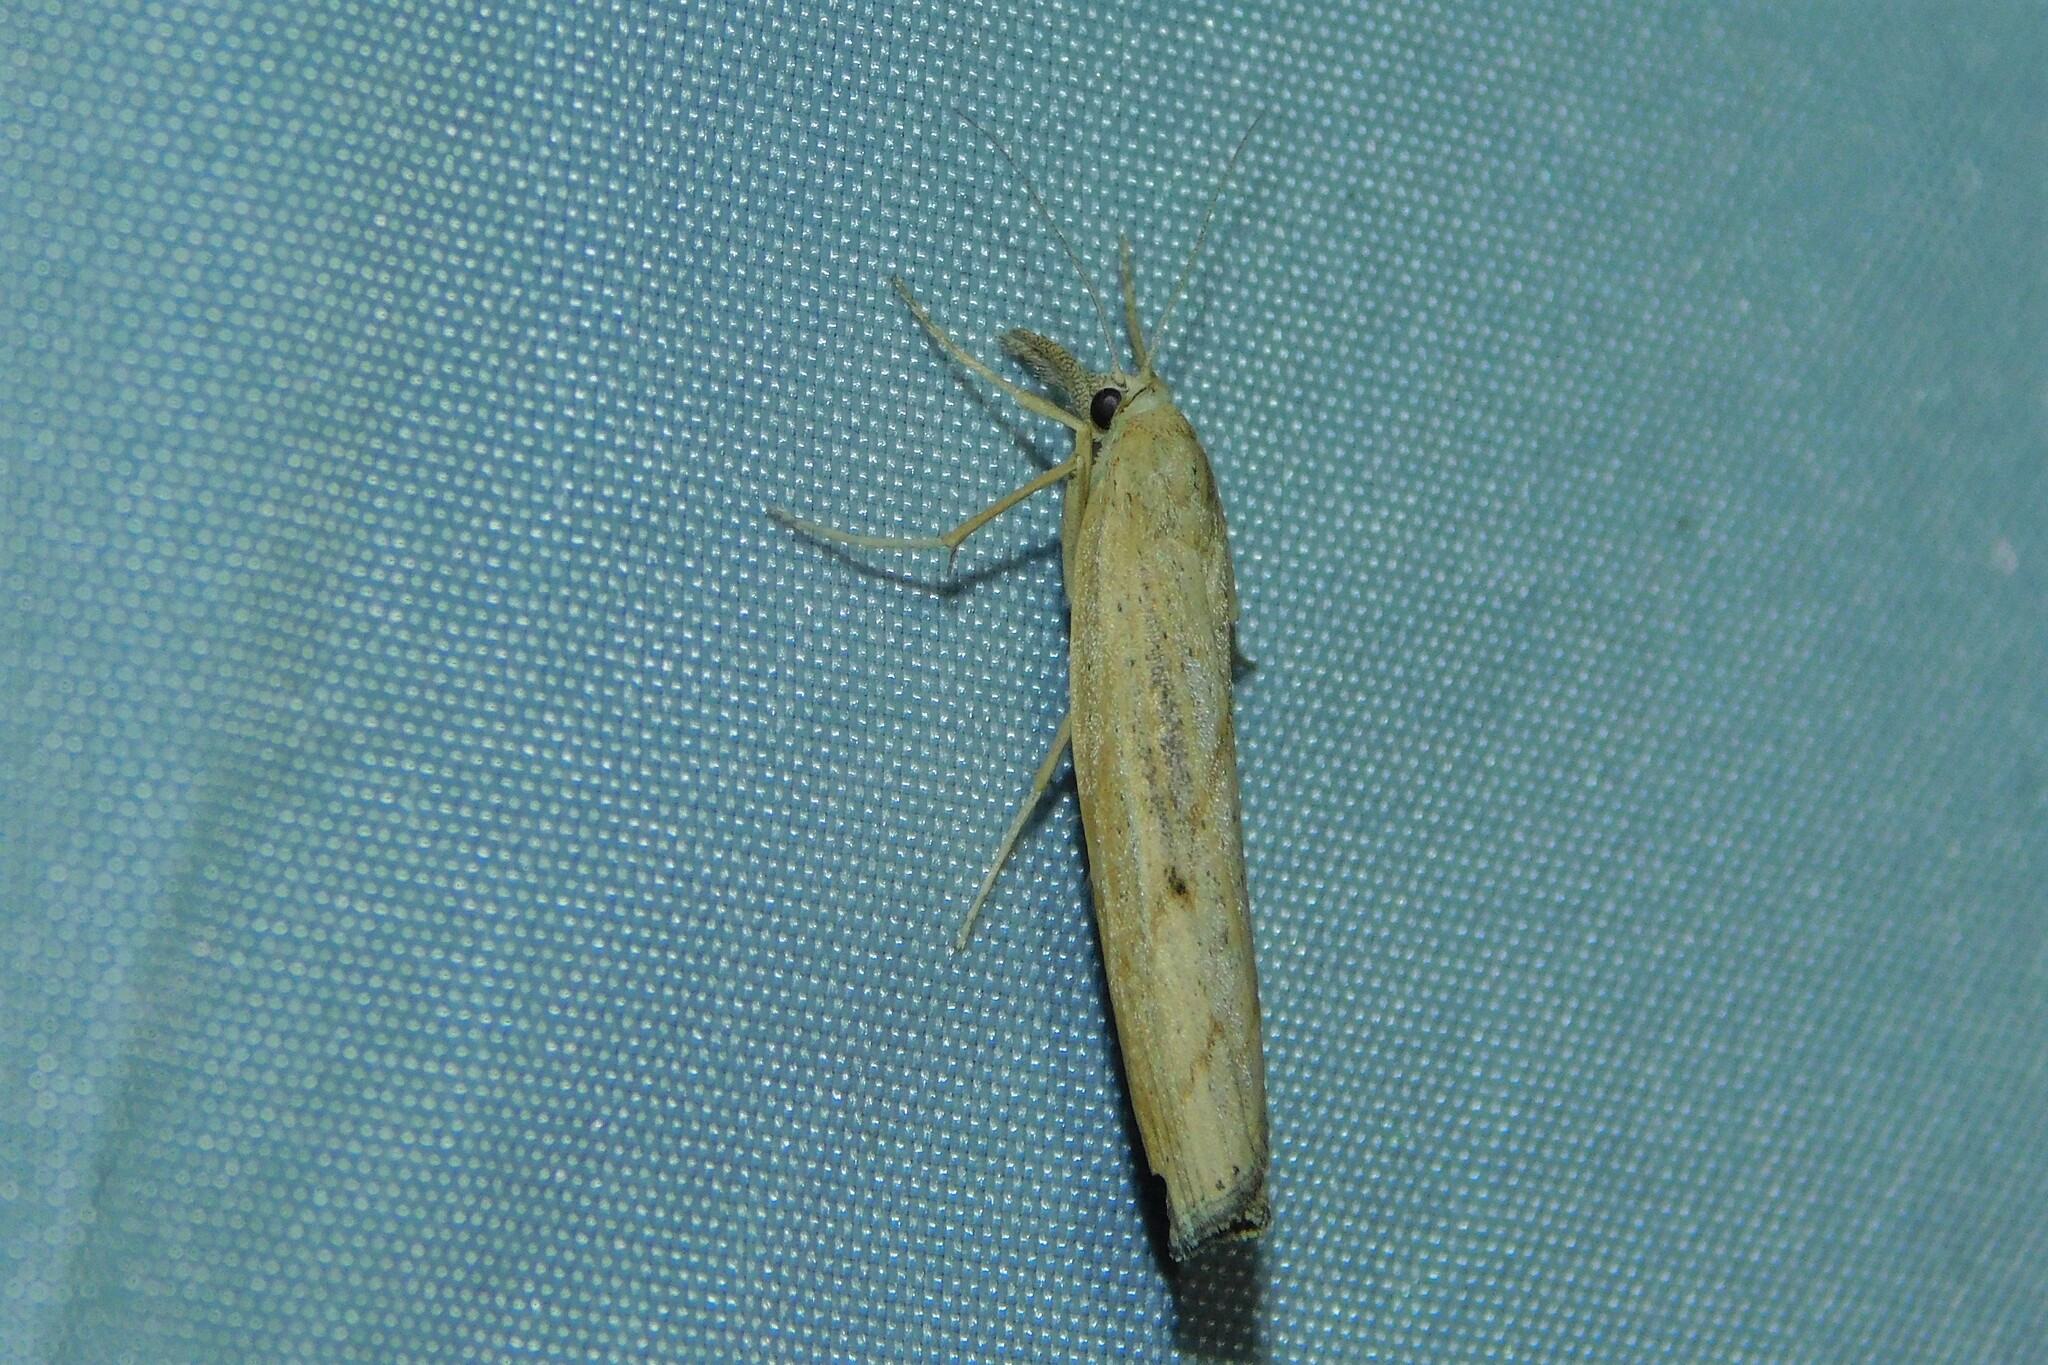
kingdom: Animalia
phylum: Arthropoda
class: Insecta
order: Lepidoptera
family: Crambidae
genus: Pediasia
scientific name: Pediasia contaminella
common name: Waste grass-veneer
